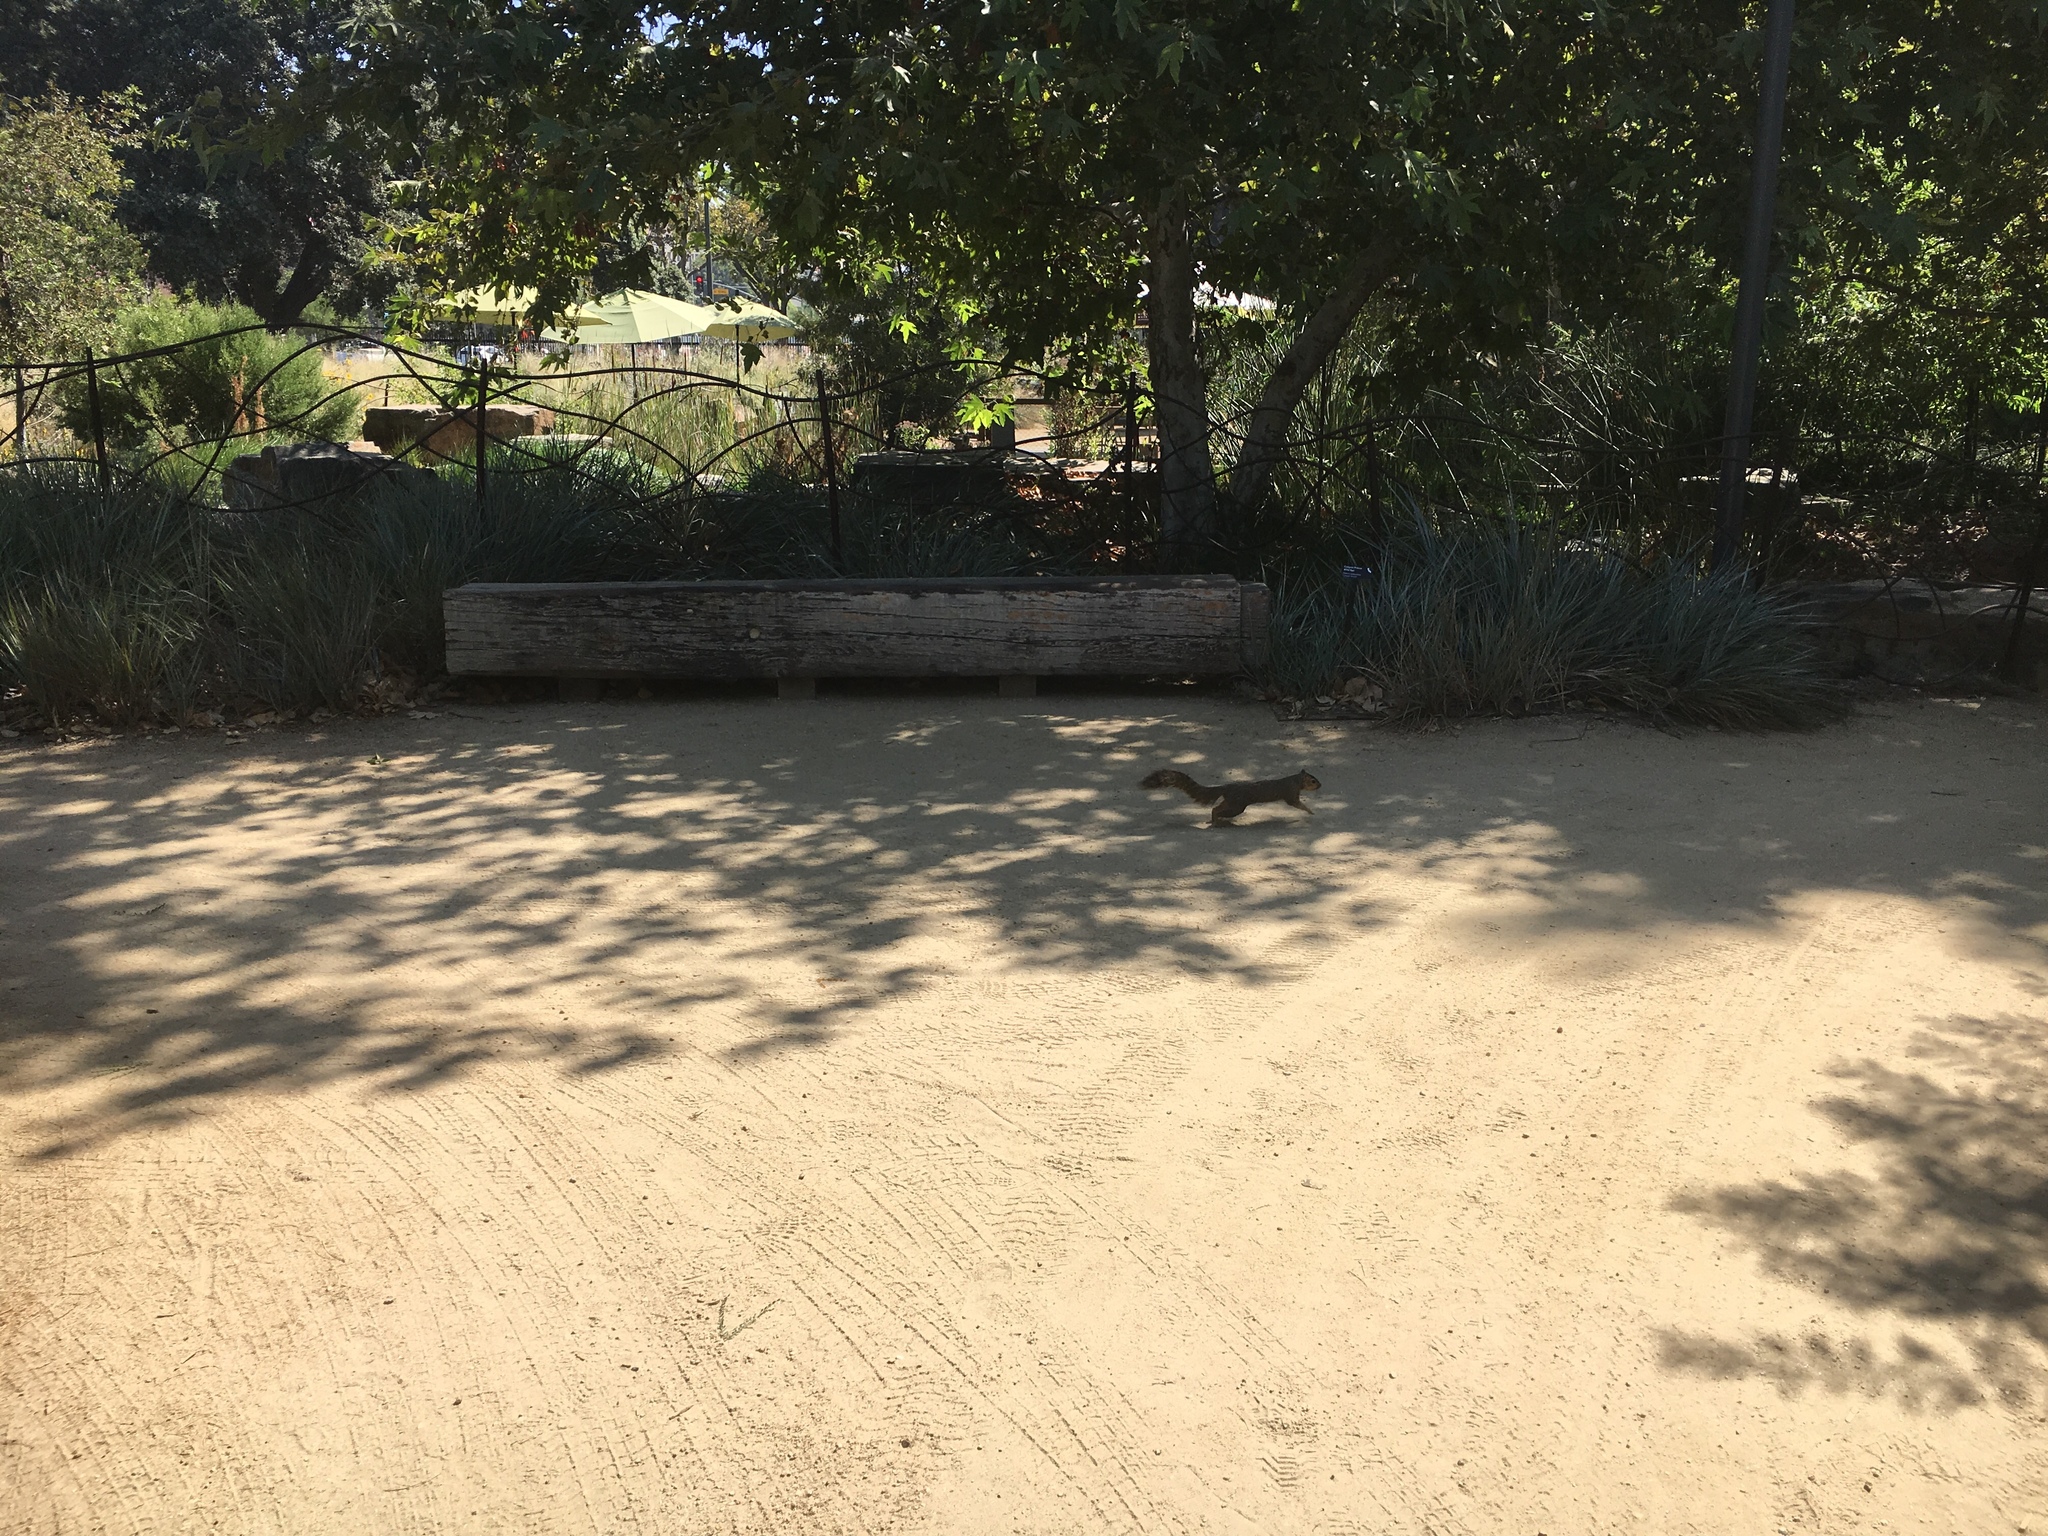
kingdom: Animalia
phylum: Chordata
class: Mammalia
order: Rodentia
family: Sciuridae
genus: Sciurus
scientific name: Sciurus niger
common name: Fox squirrel
